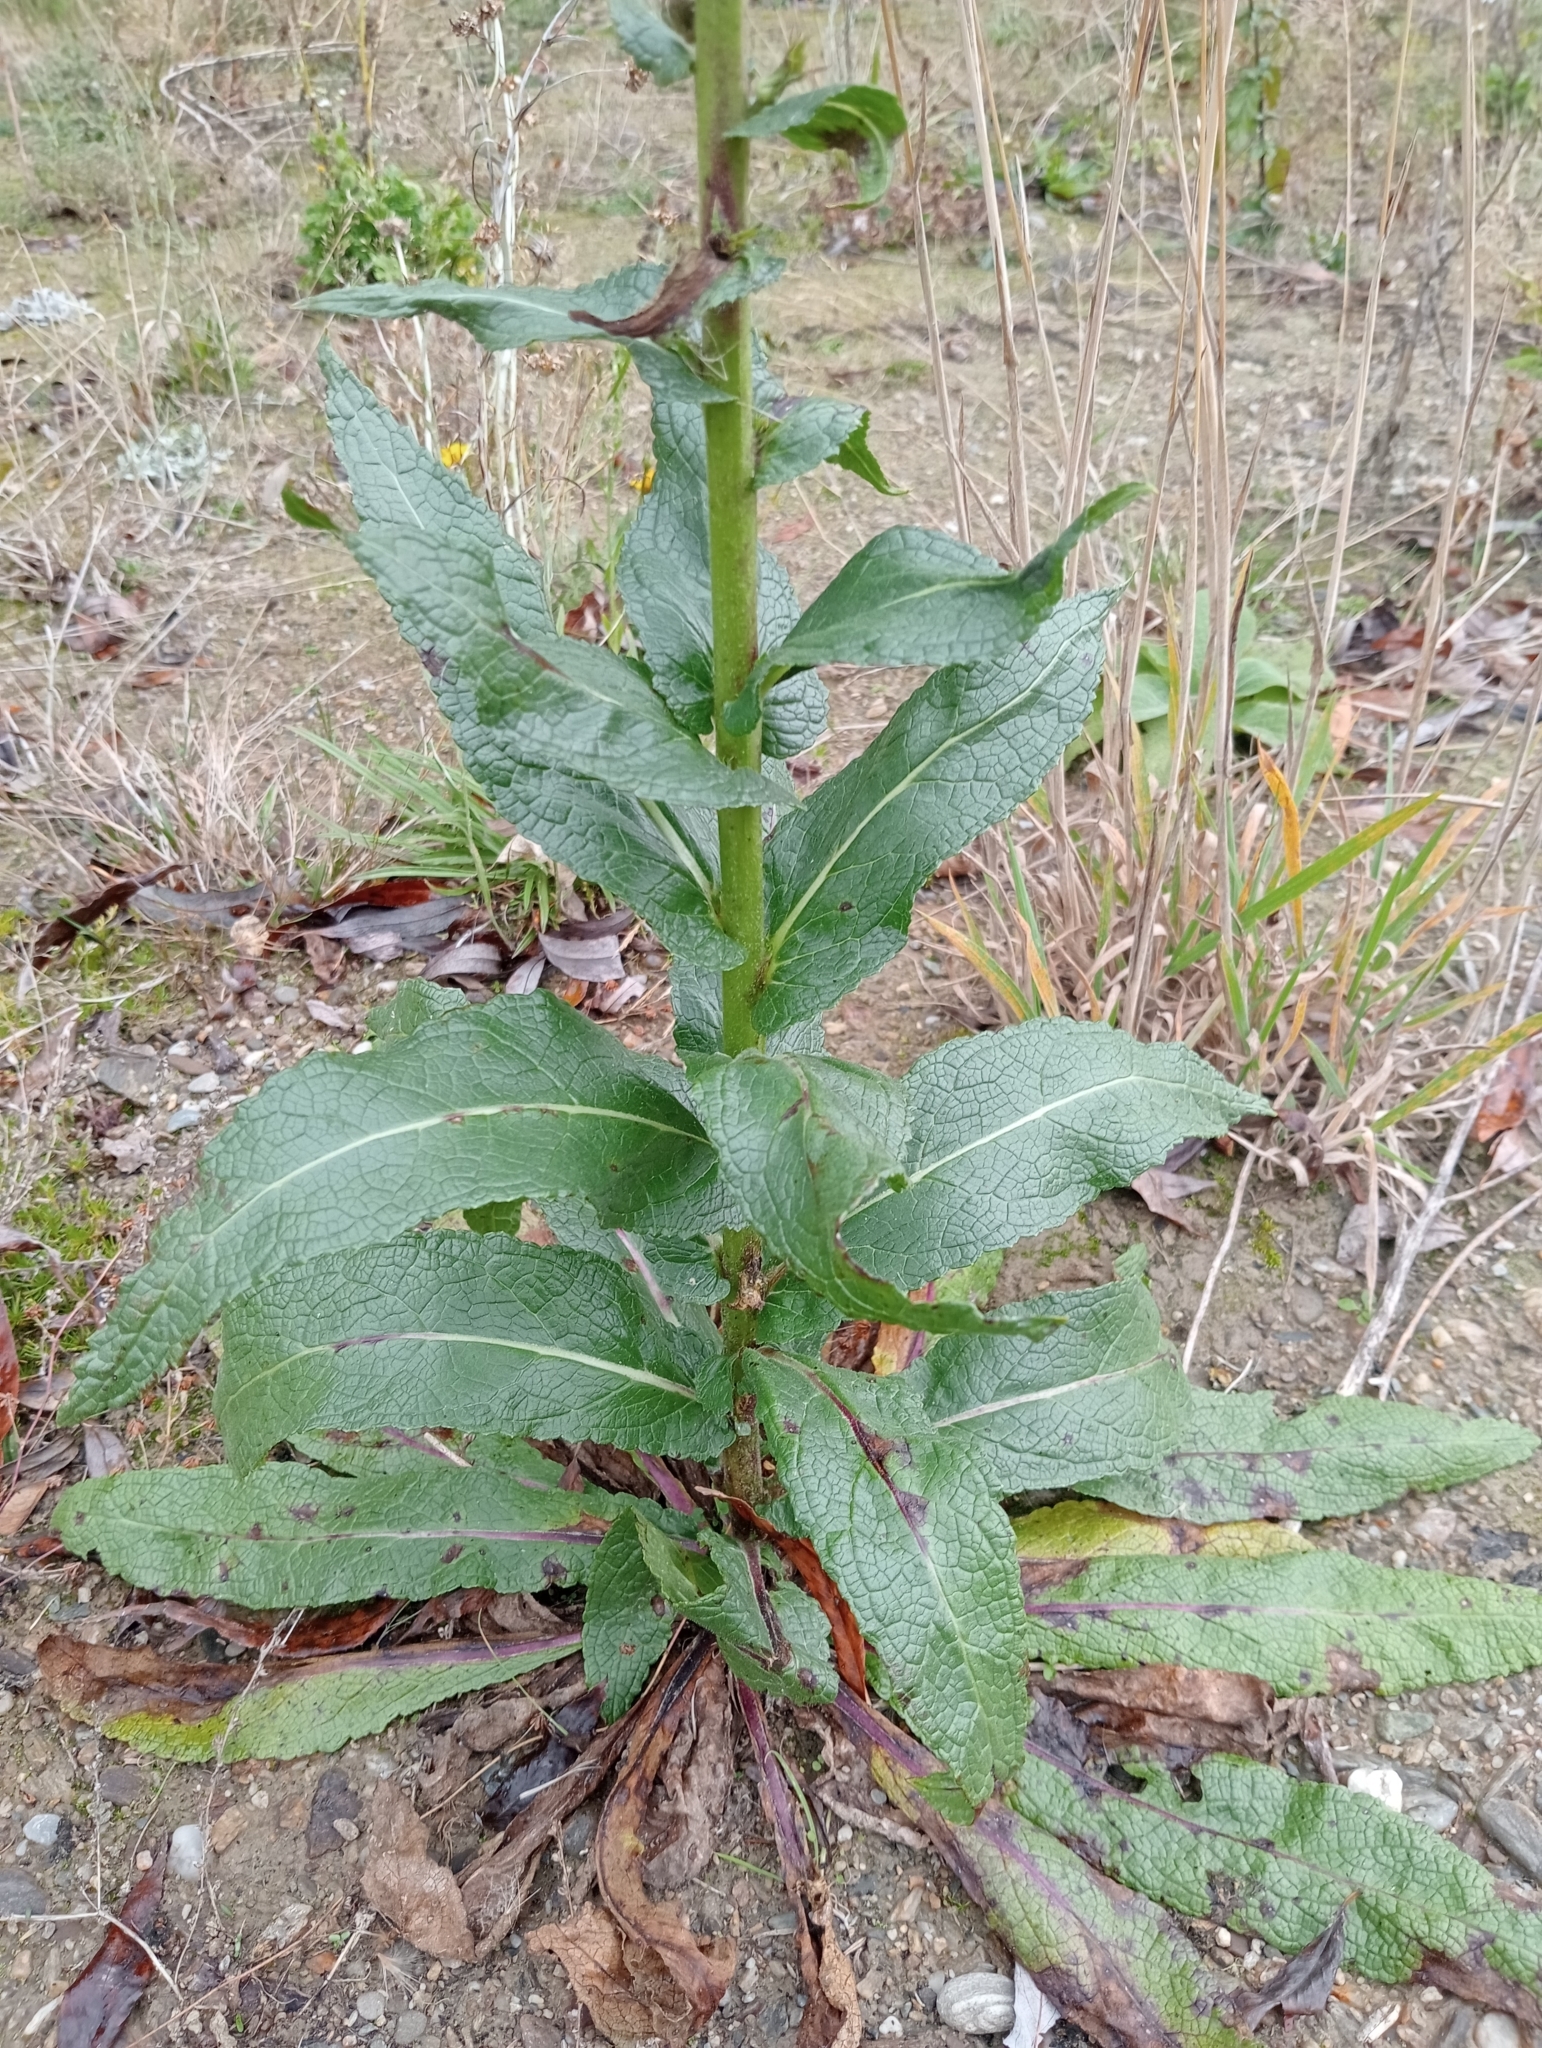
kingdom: Plantae
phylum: Tracheophyta
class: Magnoliopsida
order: Lamiales
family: Scrophulariaceae
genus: Verbascum
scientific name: Verbascum virgatum
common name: Twiggy mullein
